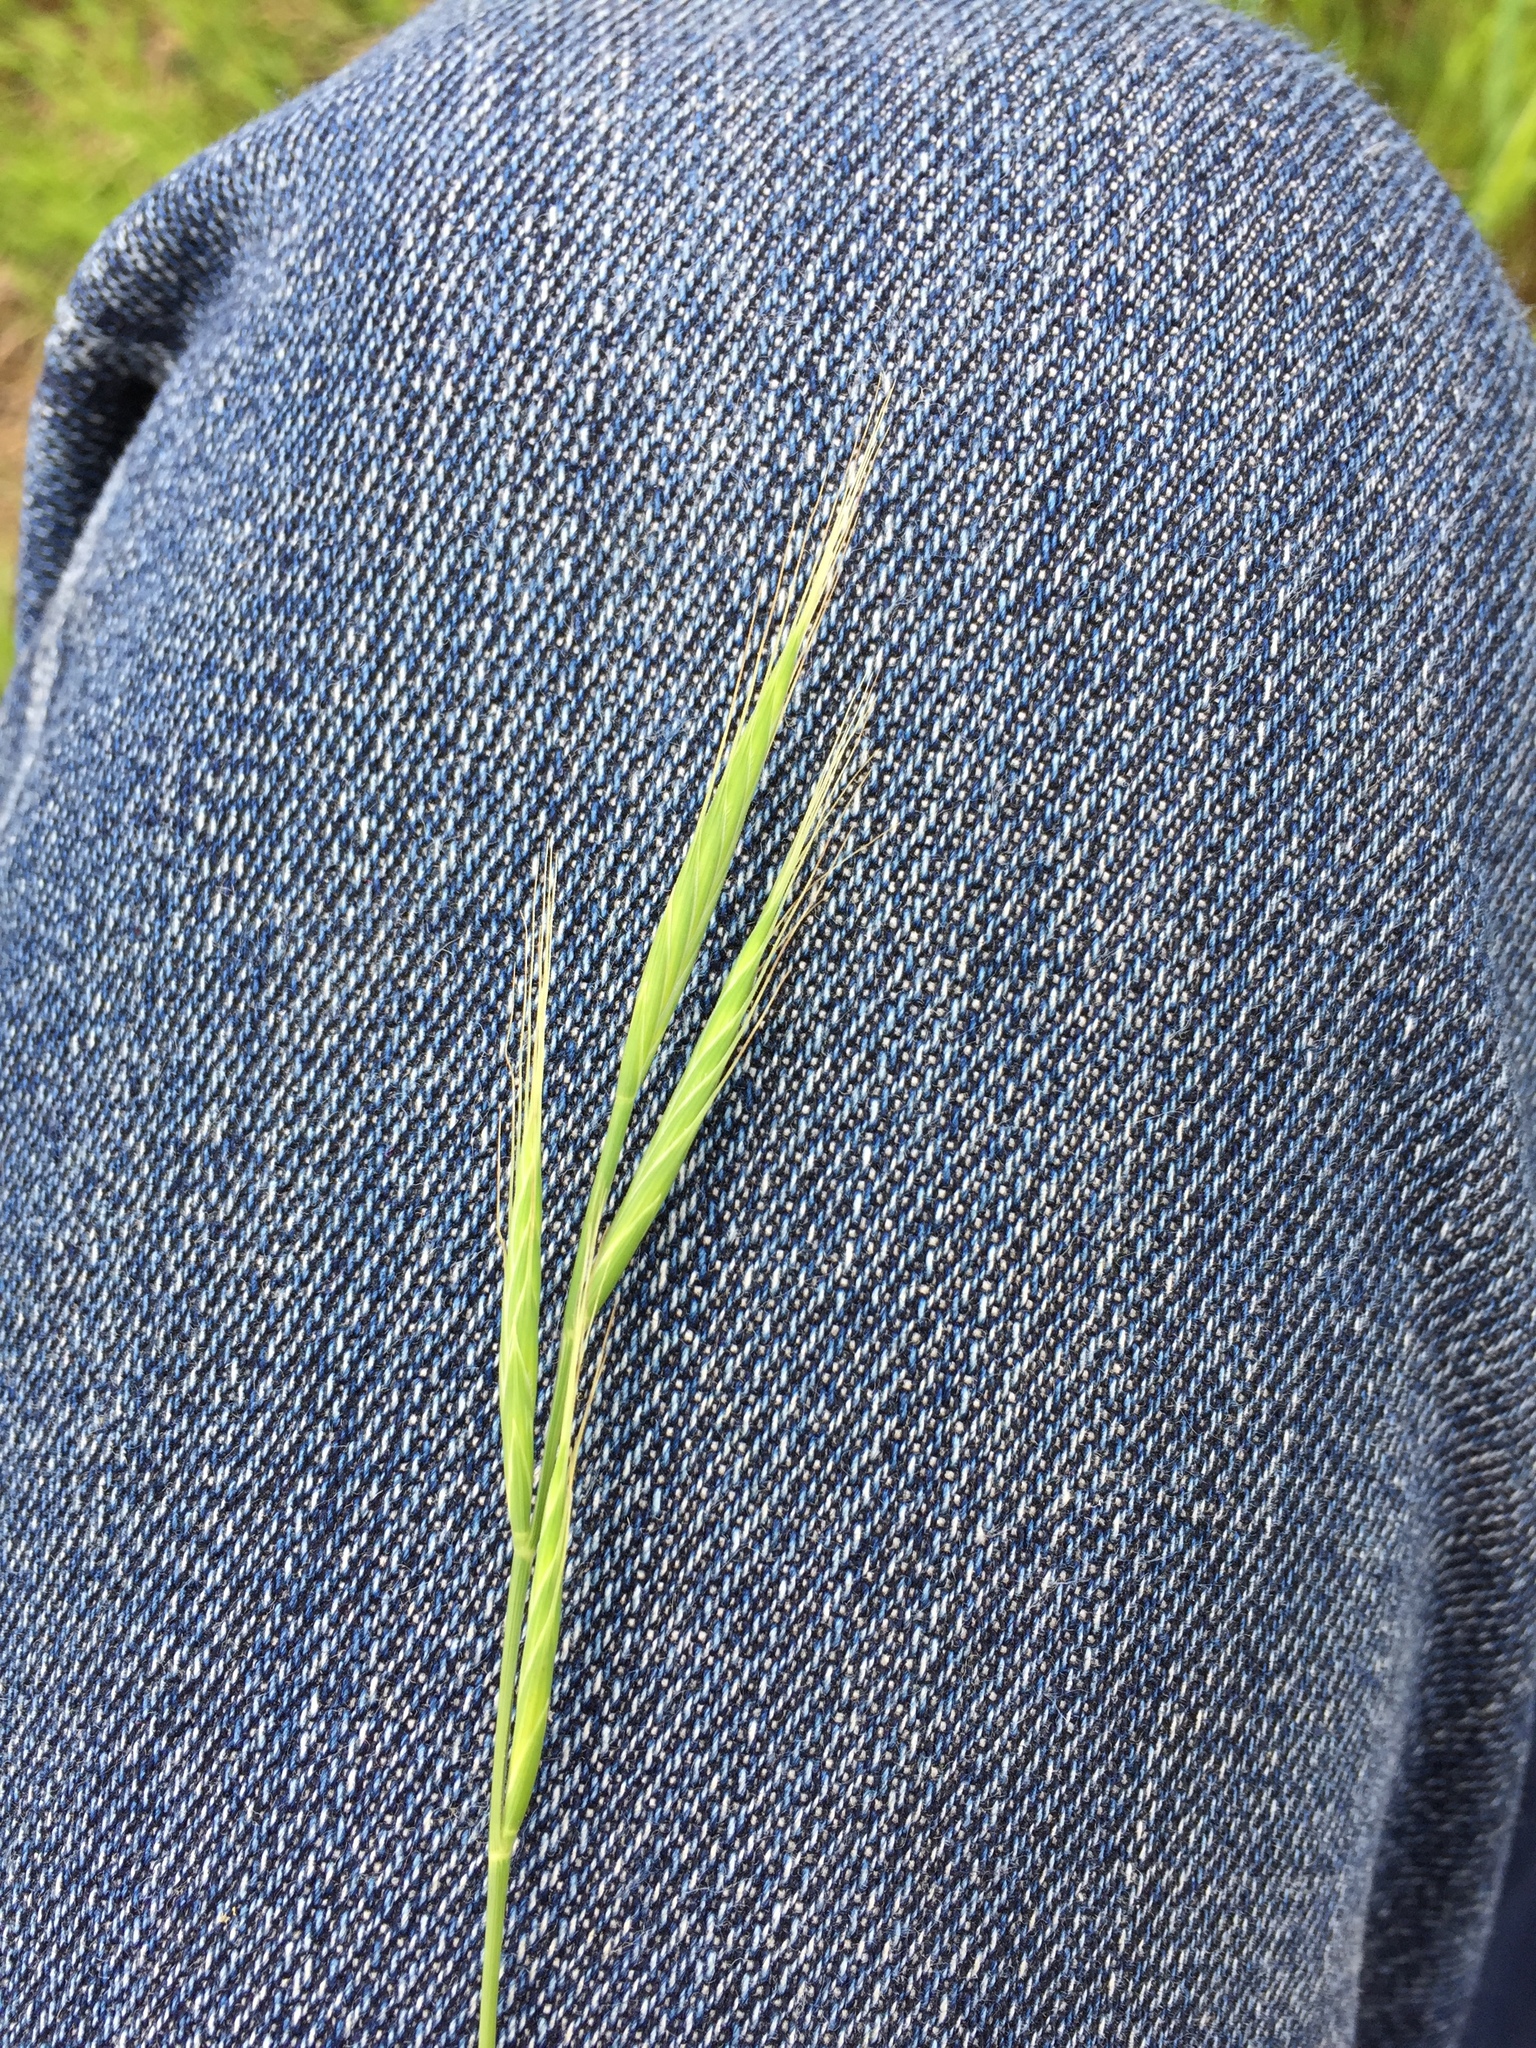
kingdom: Plantae
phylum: Tracheophyta
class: Liliopsida
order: Poales
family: Poaceae
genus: Brachypodium
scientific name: Brachypodium distachyon
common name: Stiff brome
